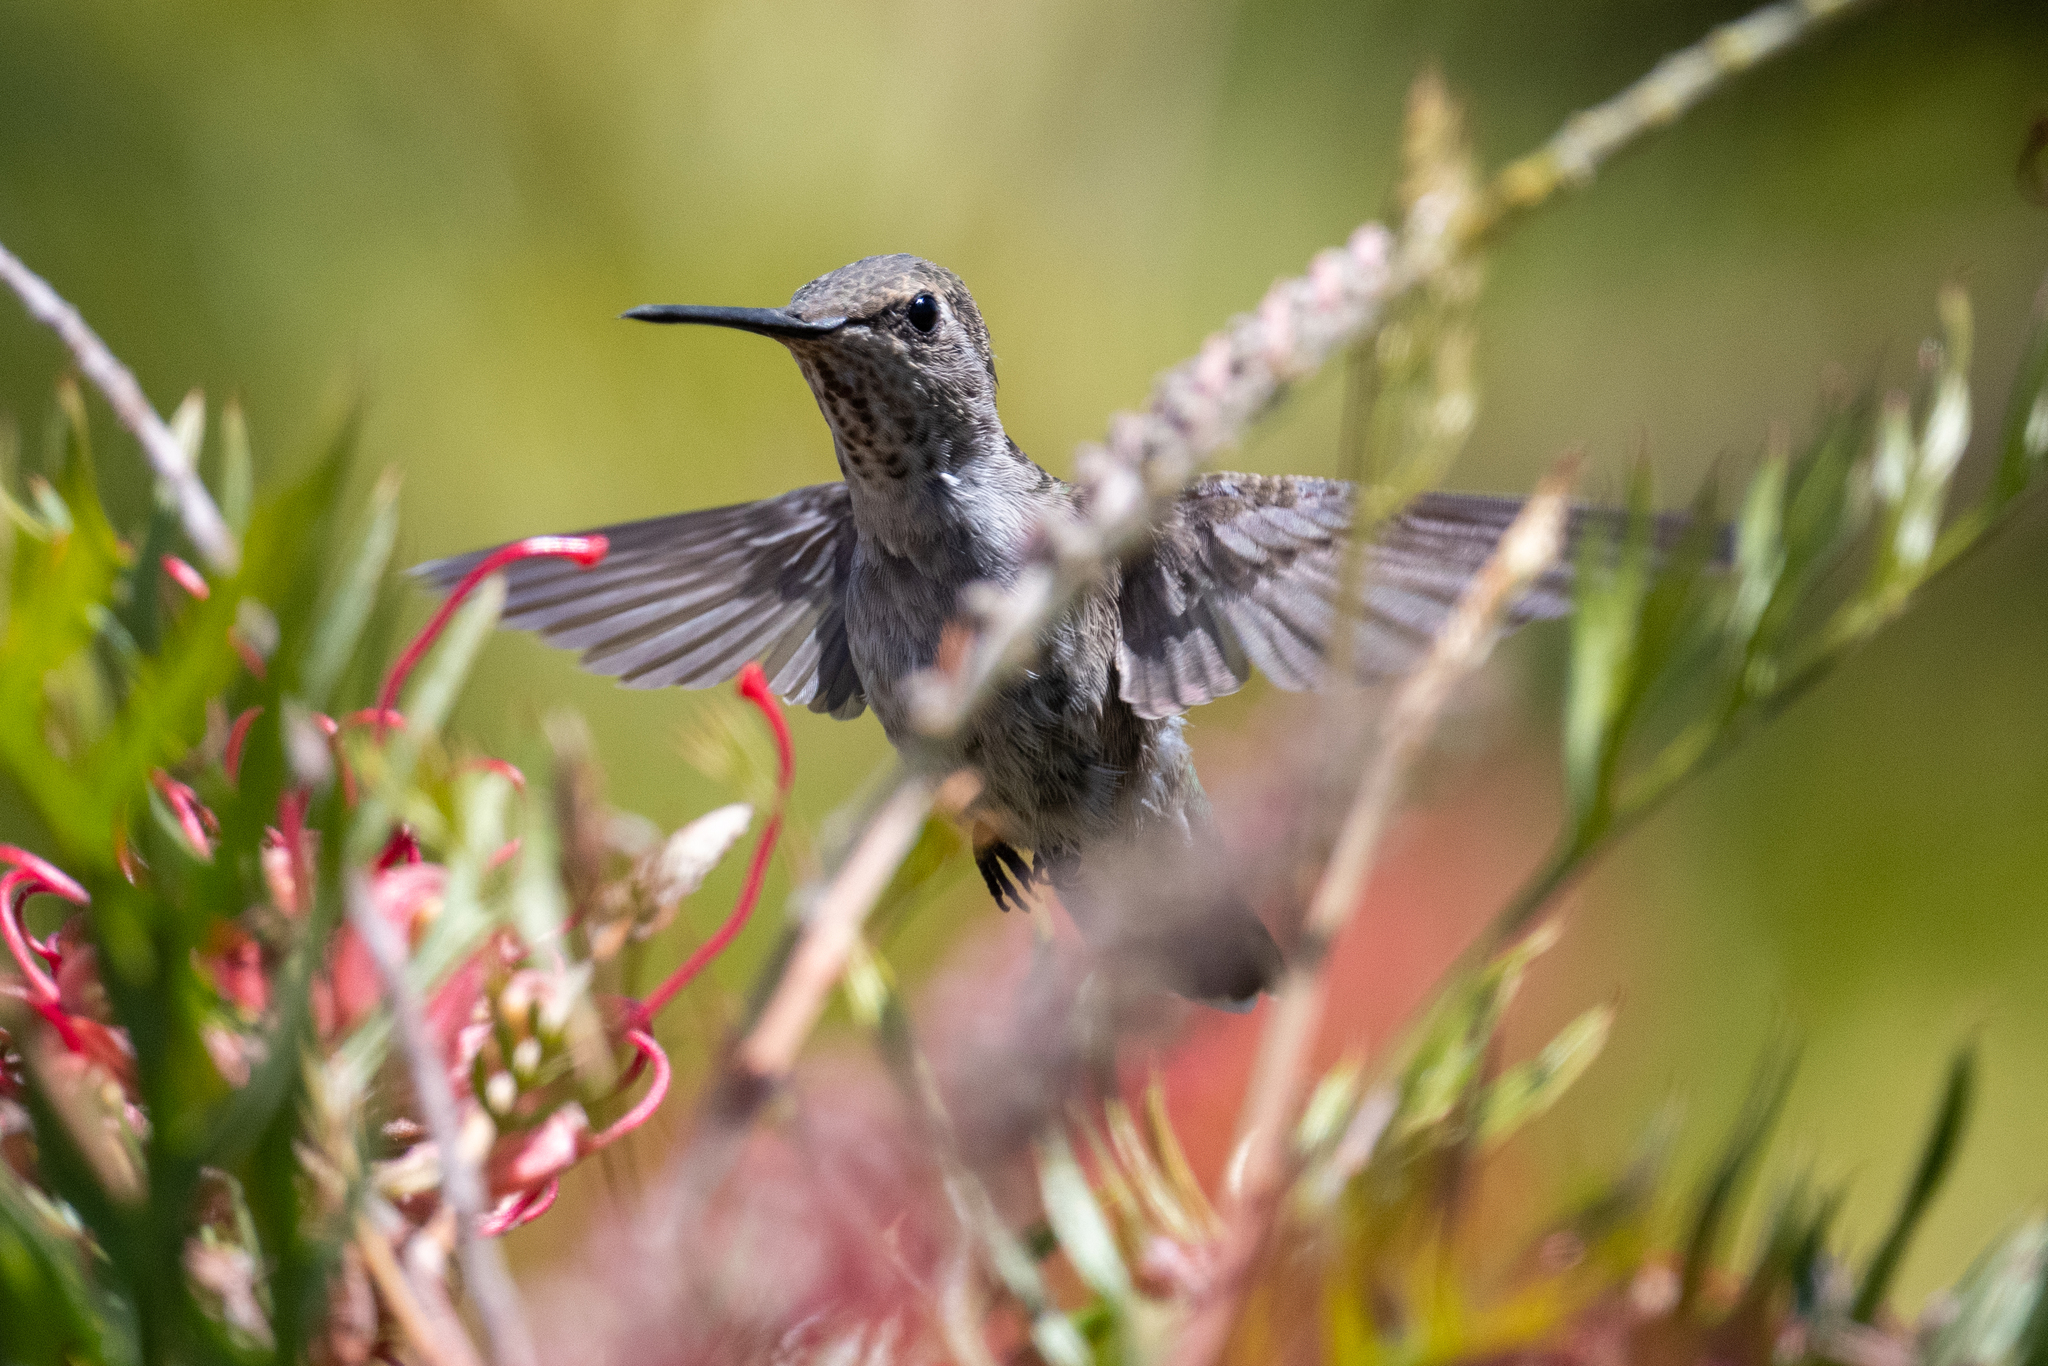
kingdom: Animalia
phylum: Chordata
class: Aves
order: Apodiformes
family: Trochilidae
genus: Calypte
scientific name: Calypte anna
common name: Anna's hummingbird
